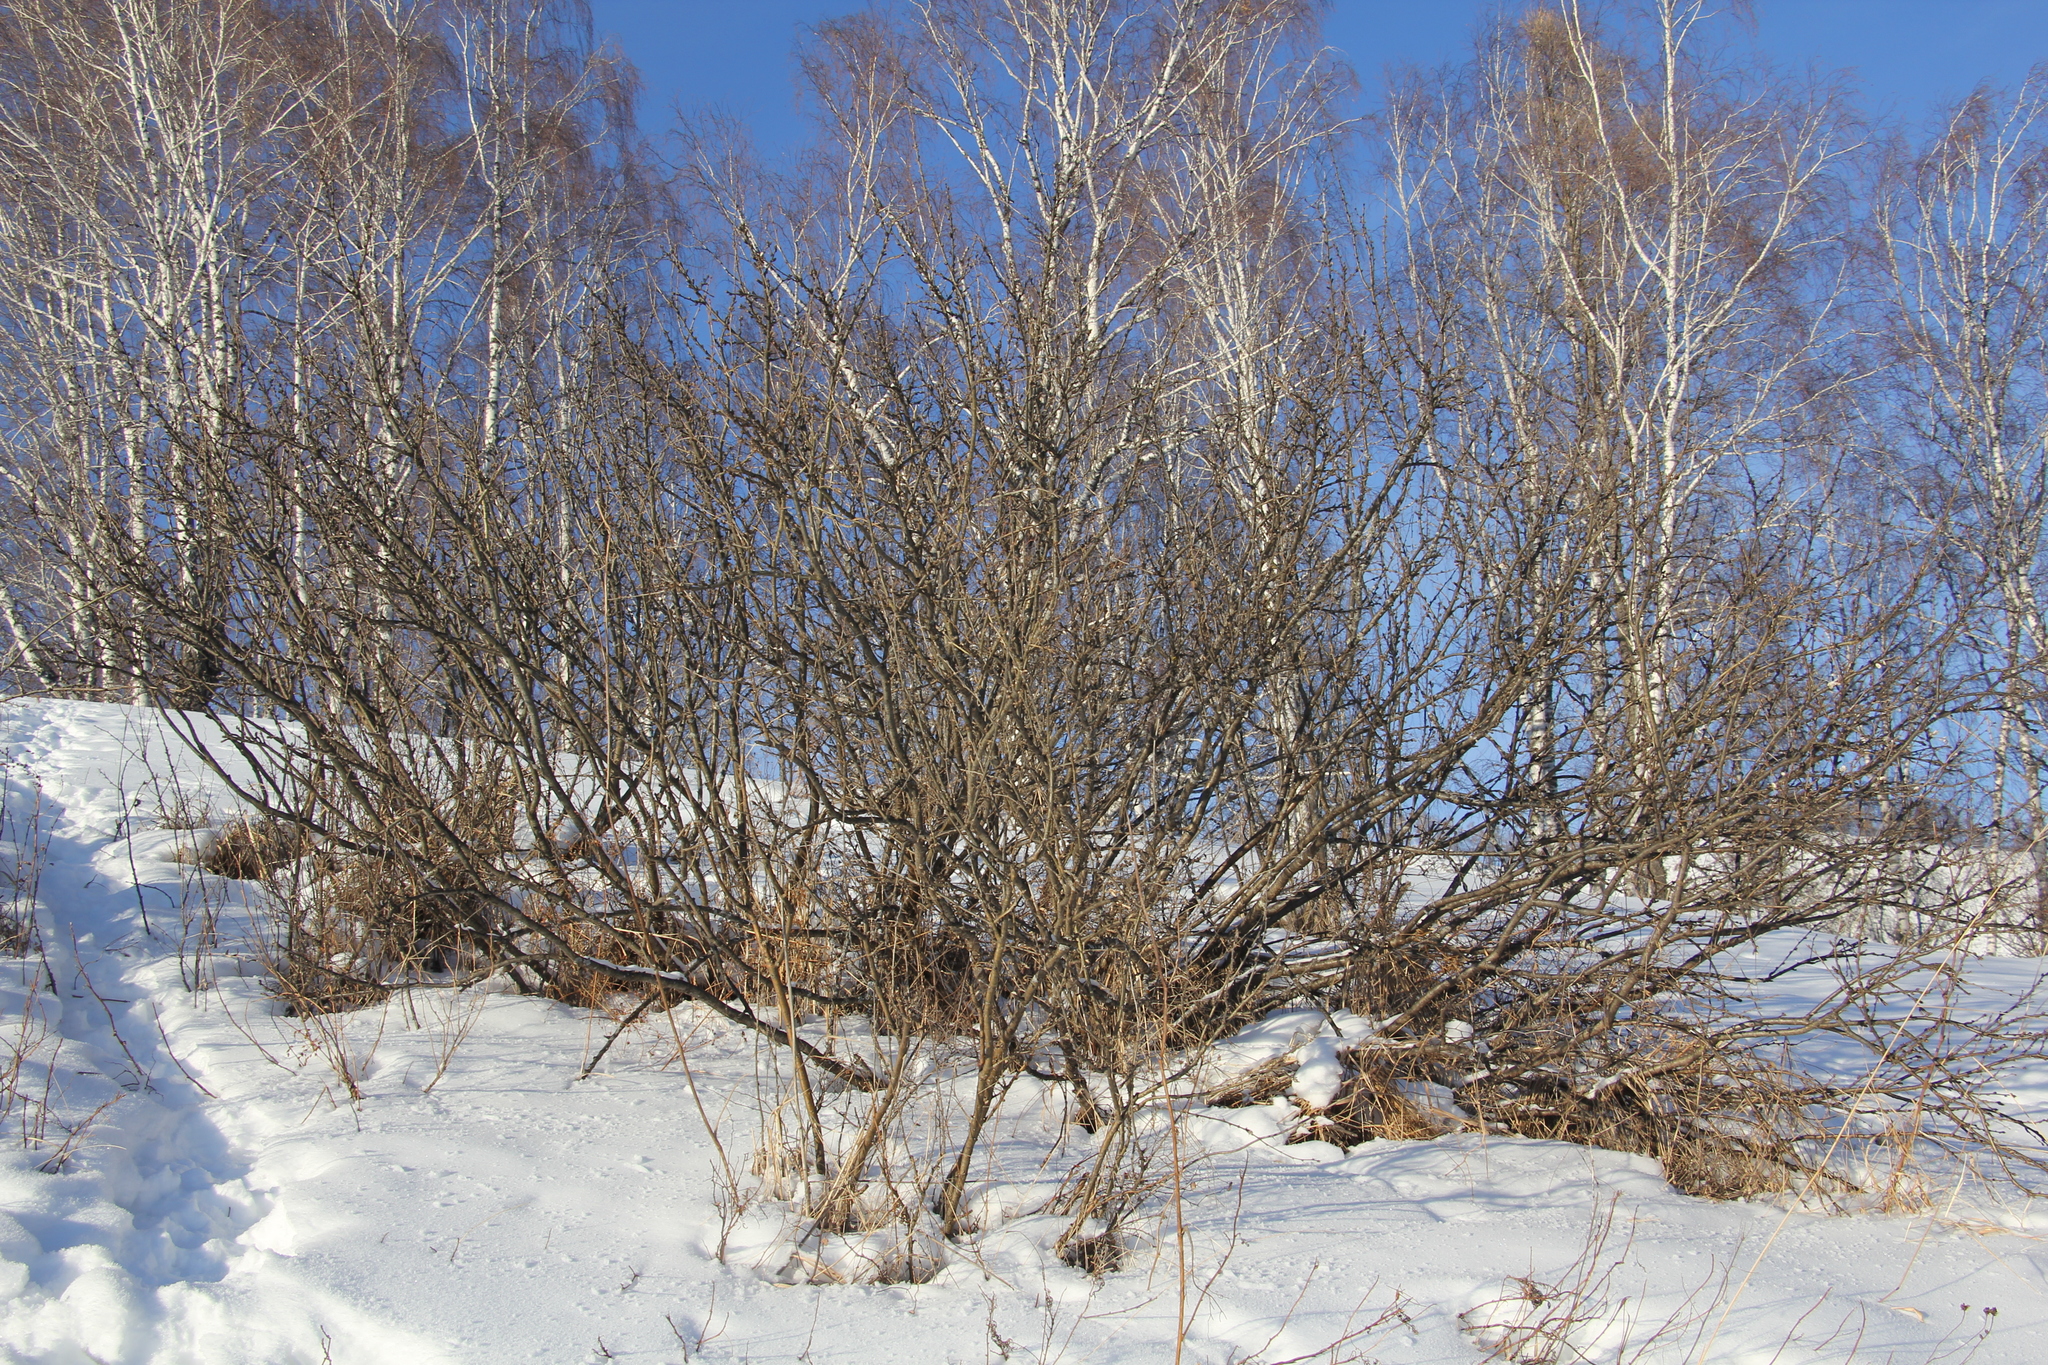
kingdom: Plantae
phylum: Tracheophyta
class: Magnoliopsida
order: Fabales
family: Fabaceae
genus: Caragana
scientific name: Caragana arborescens
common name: Siberian peashrub
